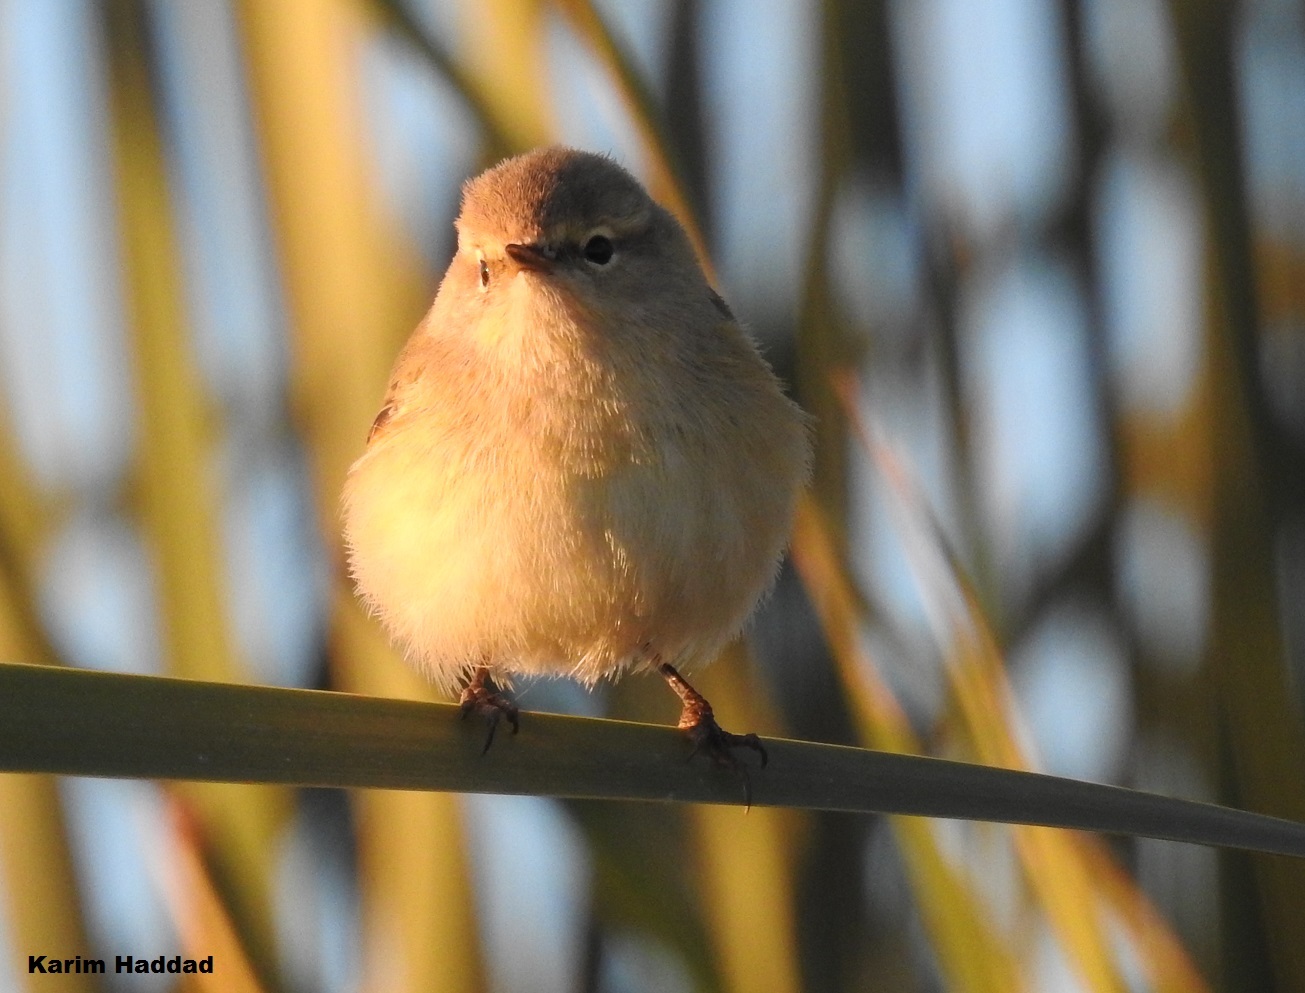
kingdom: Animalia
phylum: Chordata
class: Aves
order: Passeriformes
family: Phylloscopidae
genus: Phylloscopus
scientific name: Phylloscopus collybita
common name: Common chiffchaff
